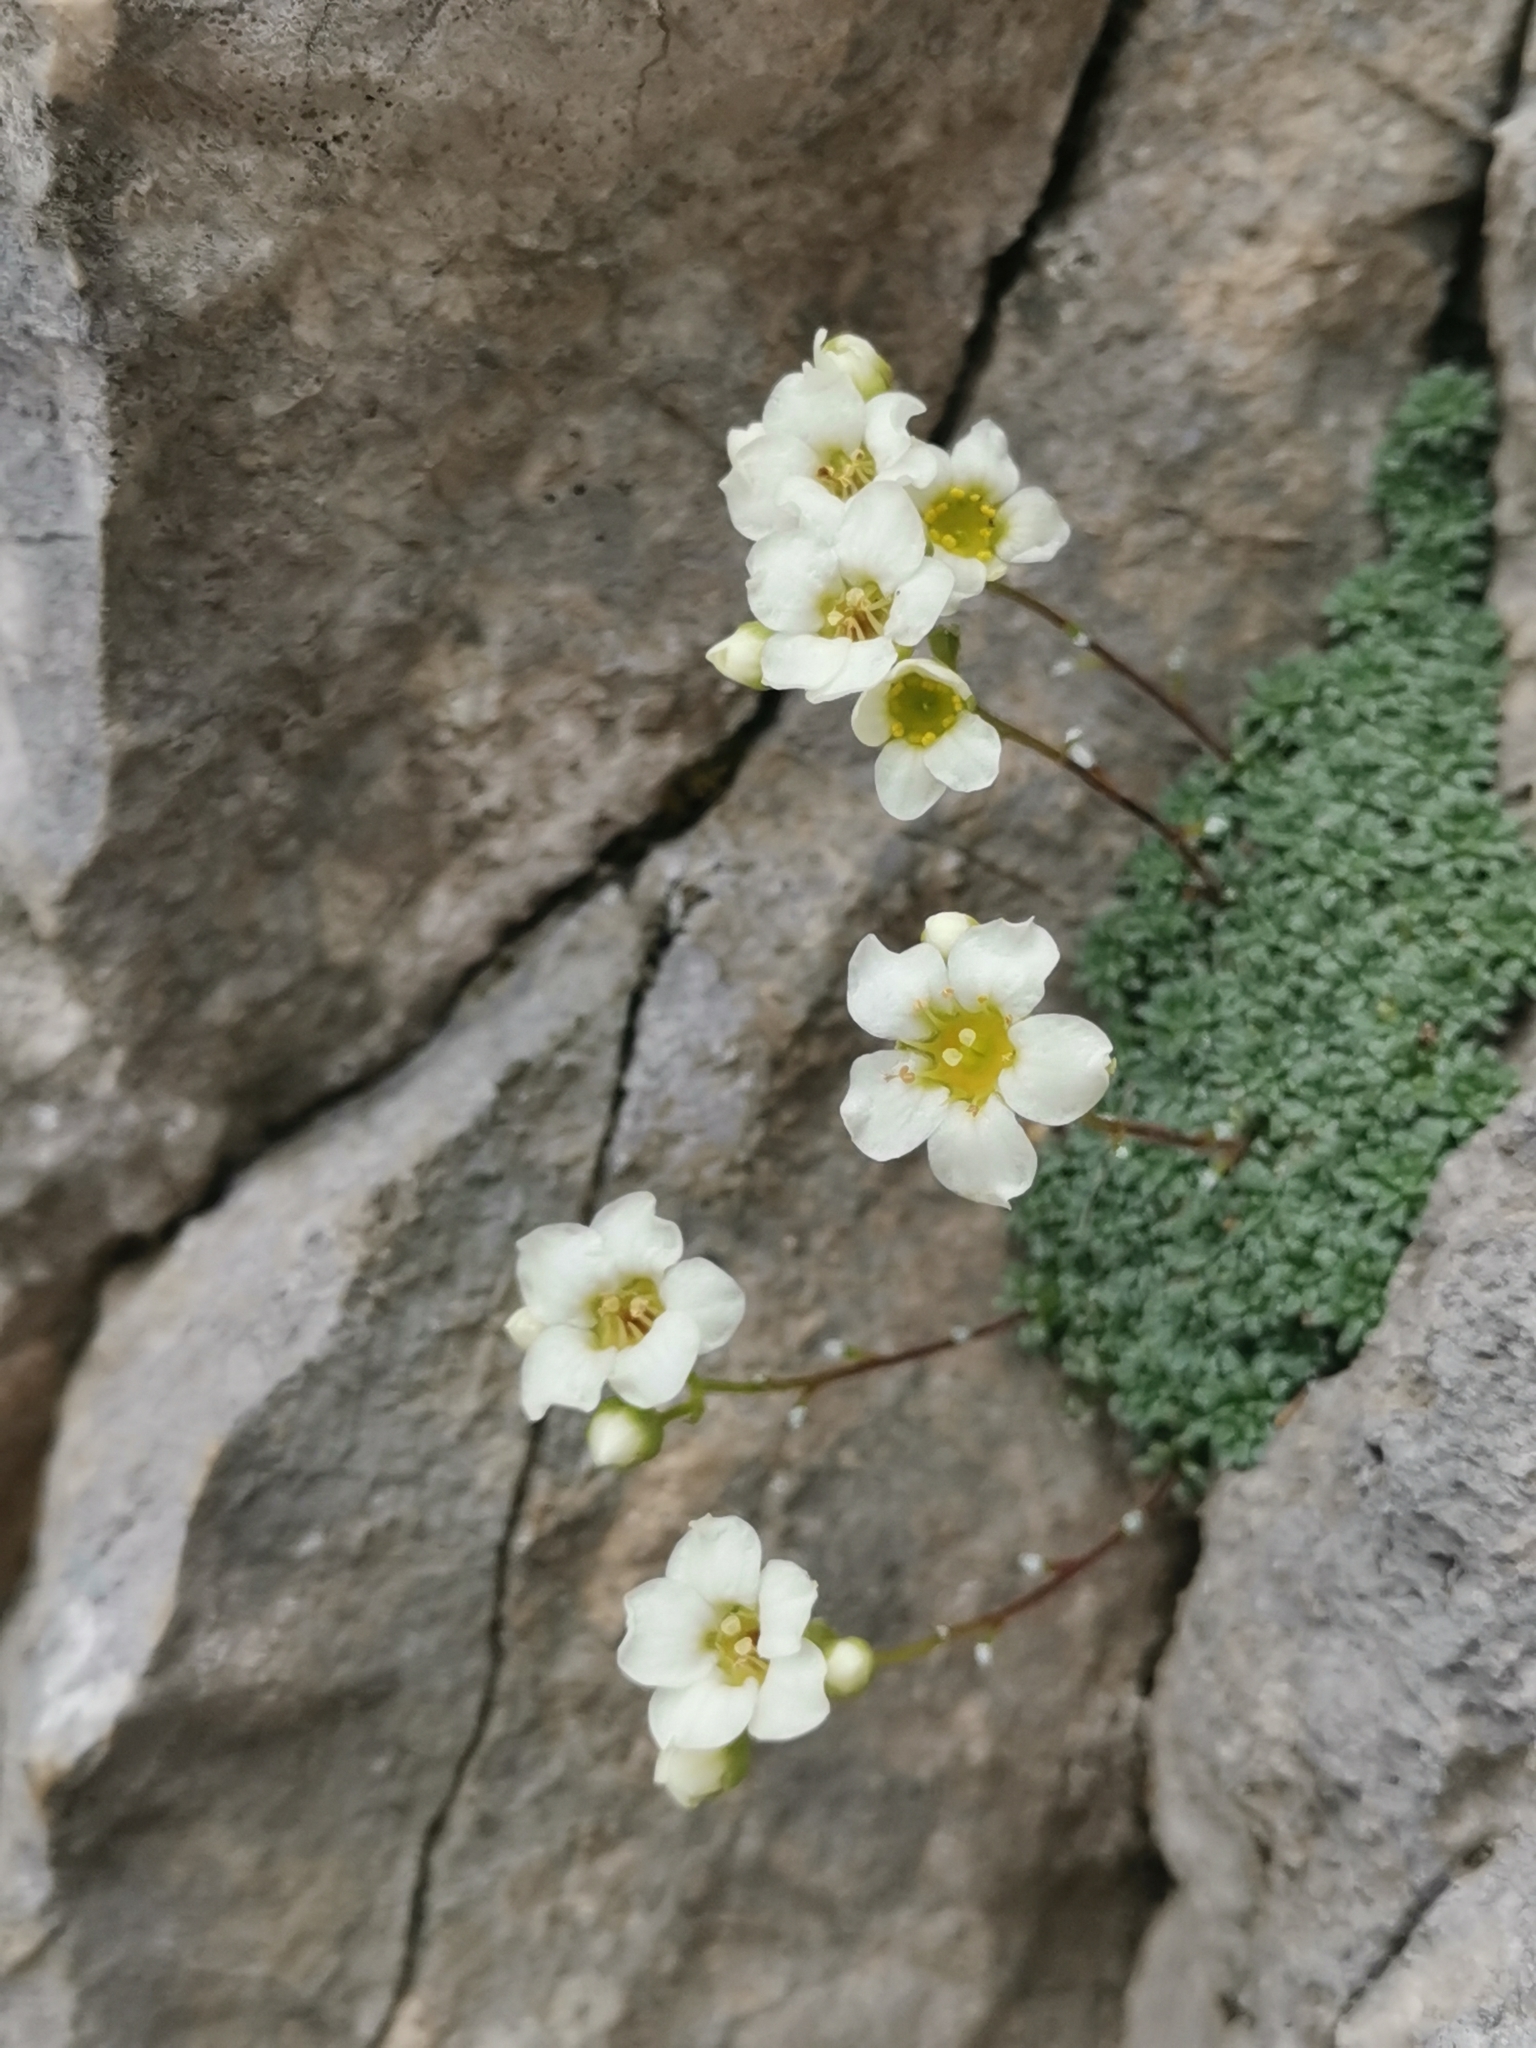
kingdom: Plantae
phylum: Tracheophyta
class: Magnoliopsida
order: Saxifragales
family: Saxifragaceae
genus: Saxifraga
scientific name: Saxifraga squarrosa
